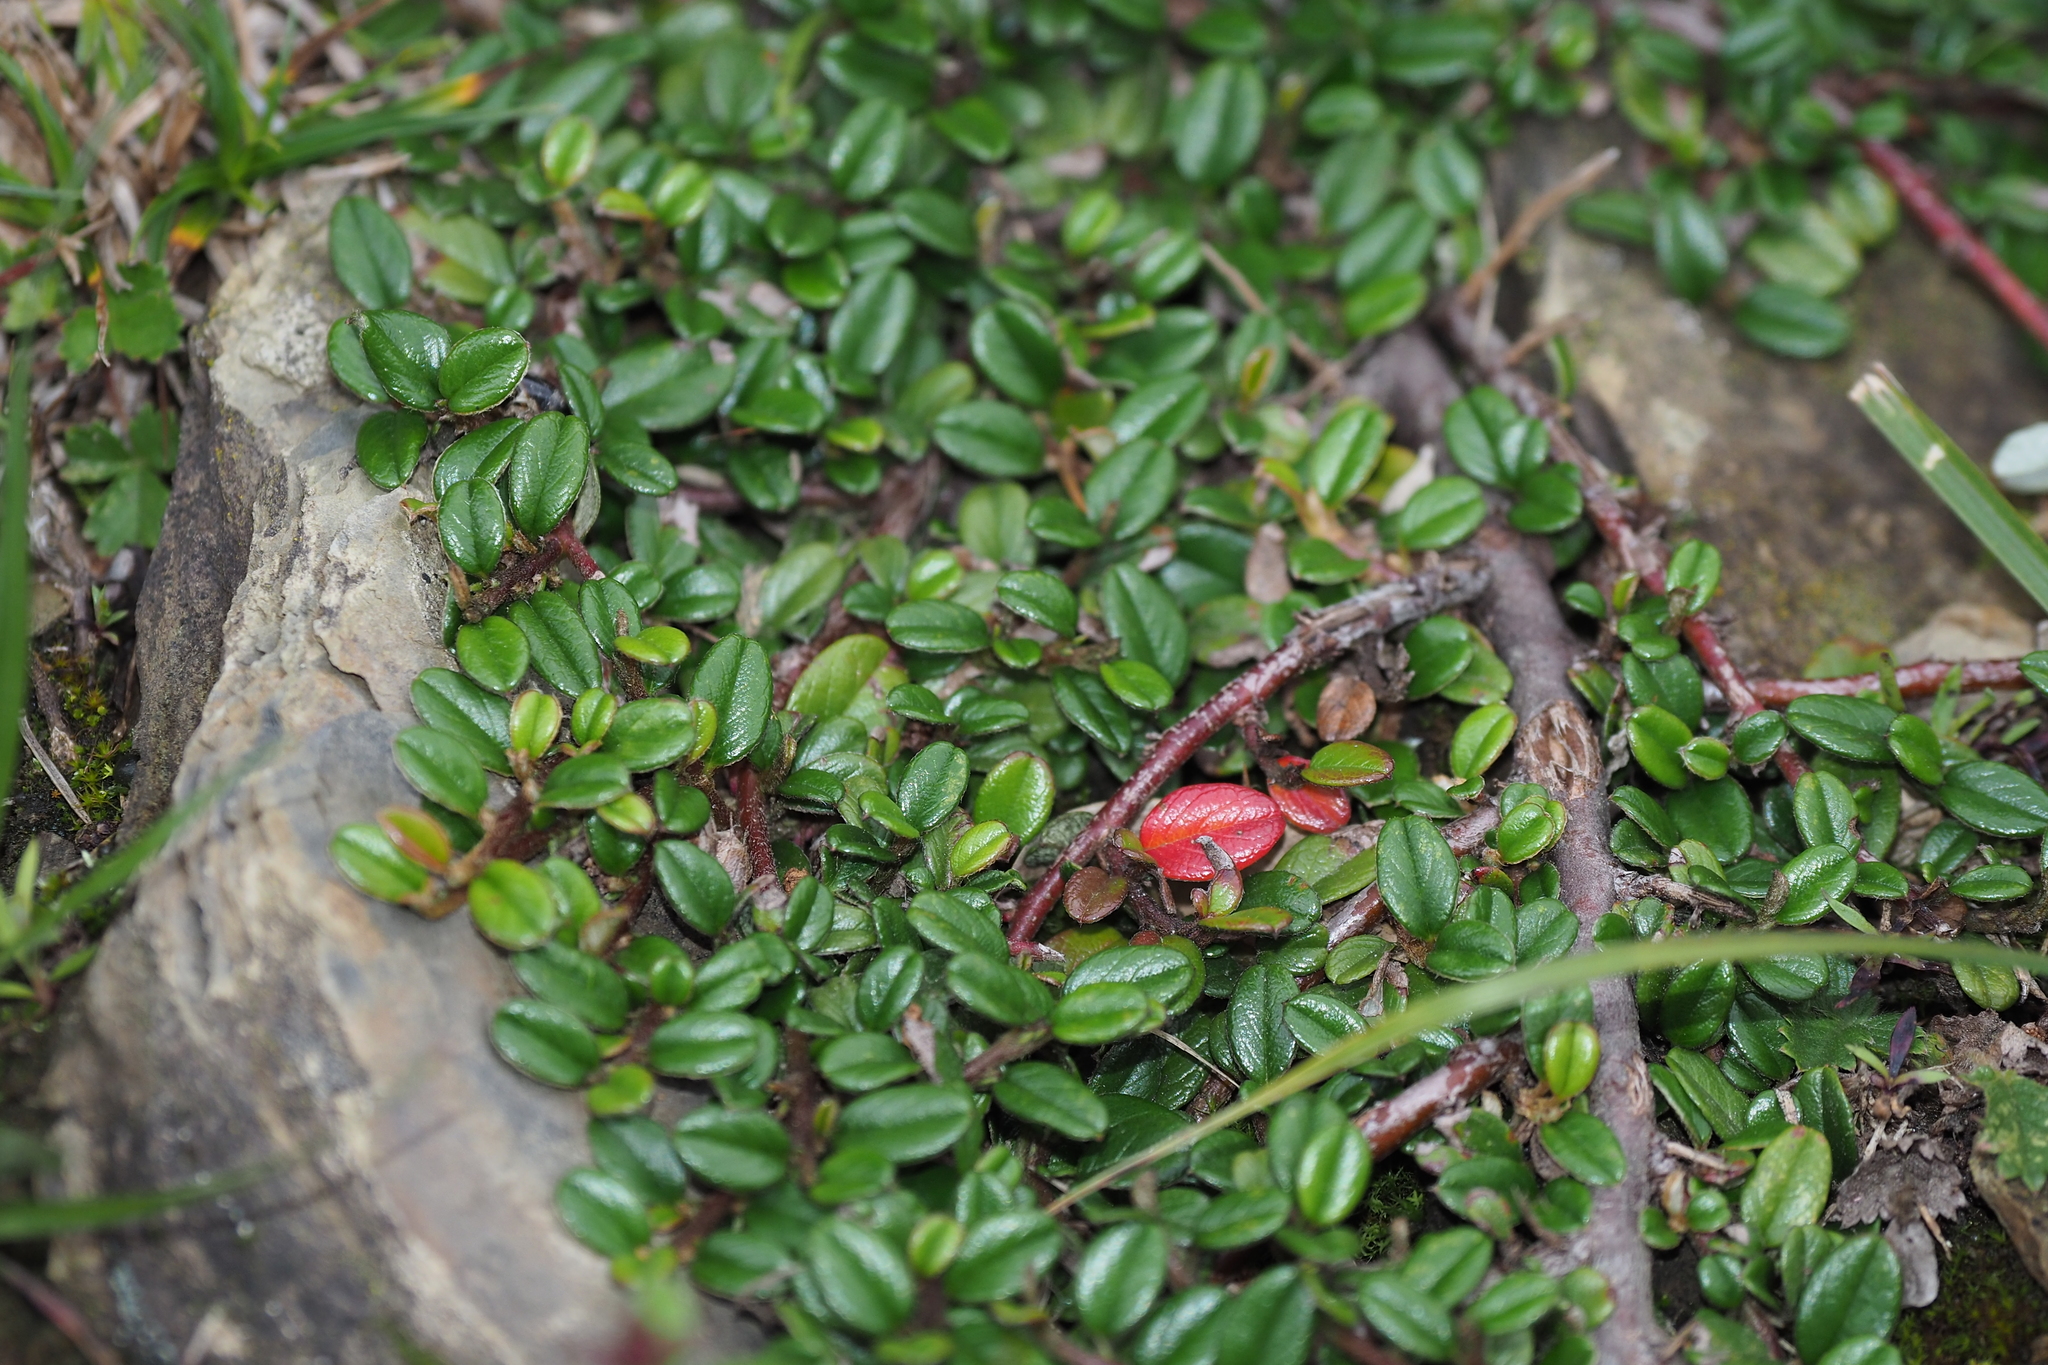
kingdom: Plantae
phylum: Tracheophyta
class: Magnoliopsida
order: Rosales
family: Rosaceae
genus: Cotoneaster
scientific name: Cotoneaster morrisonensis
